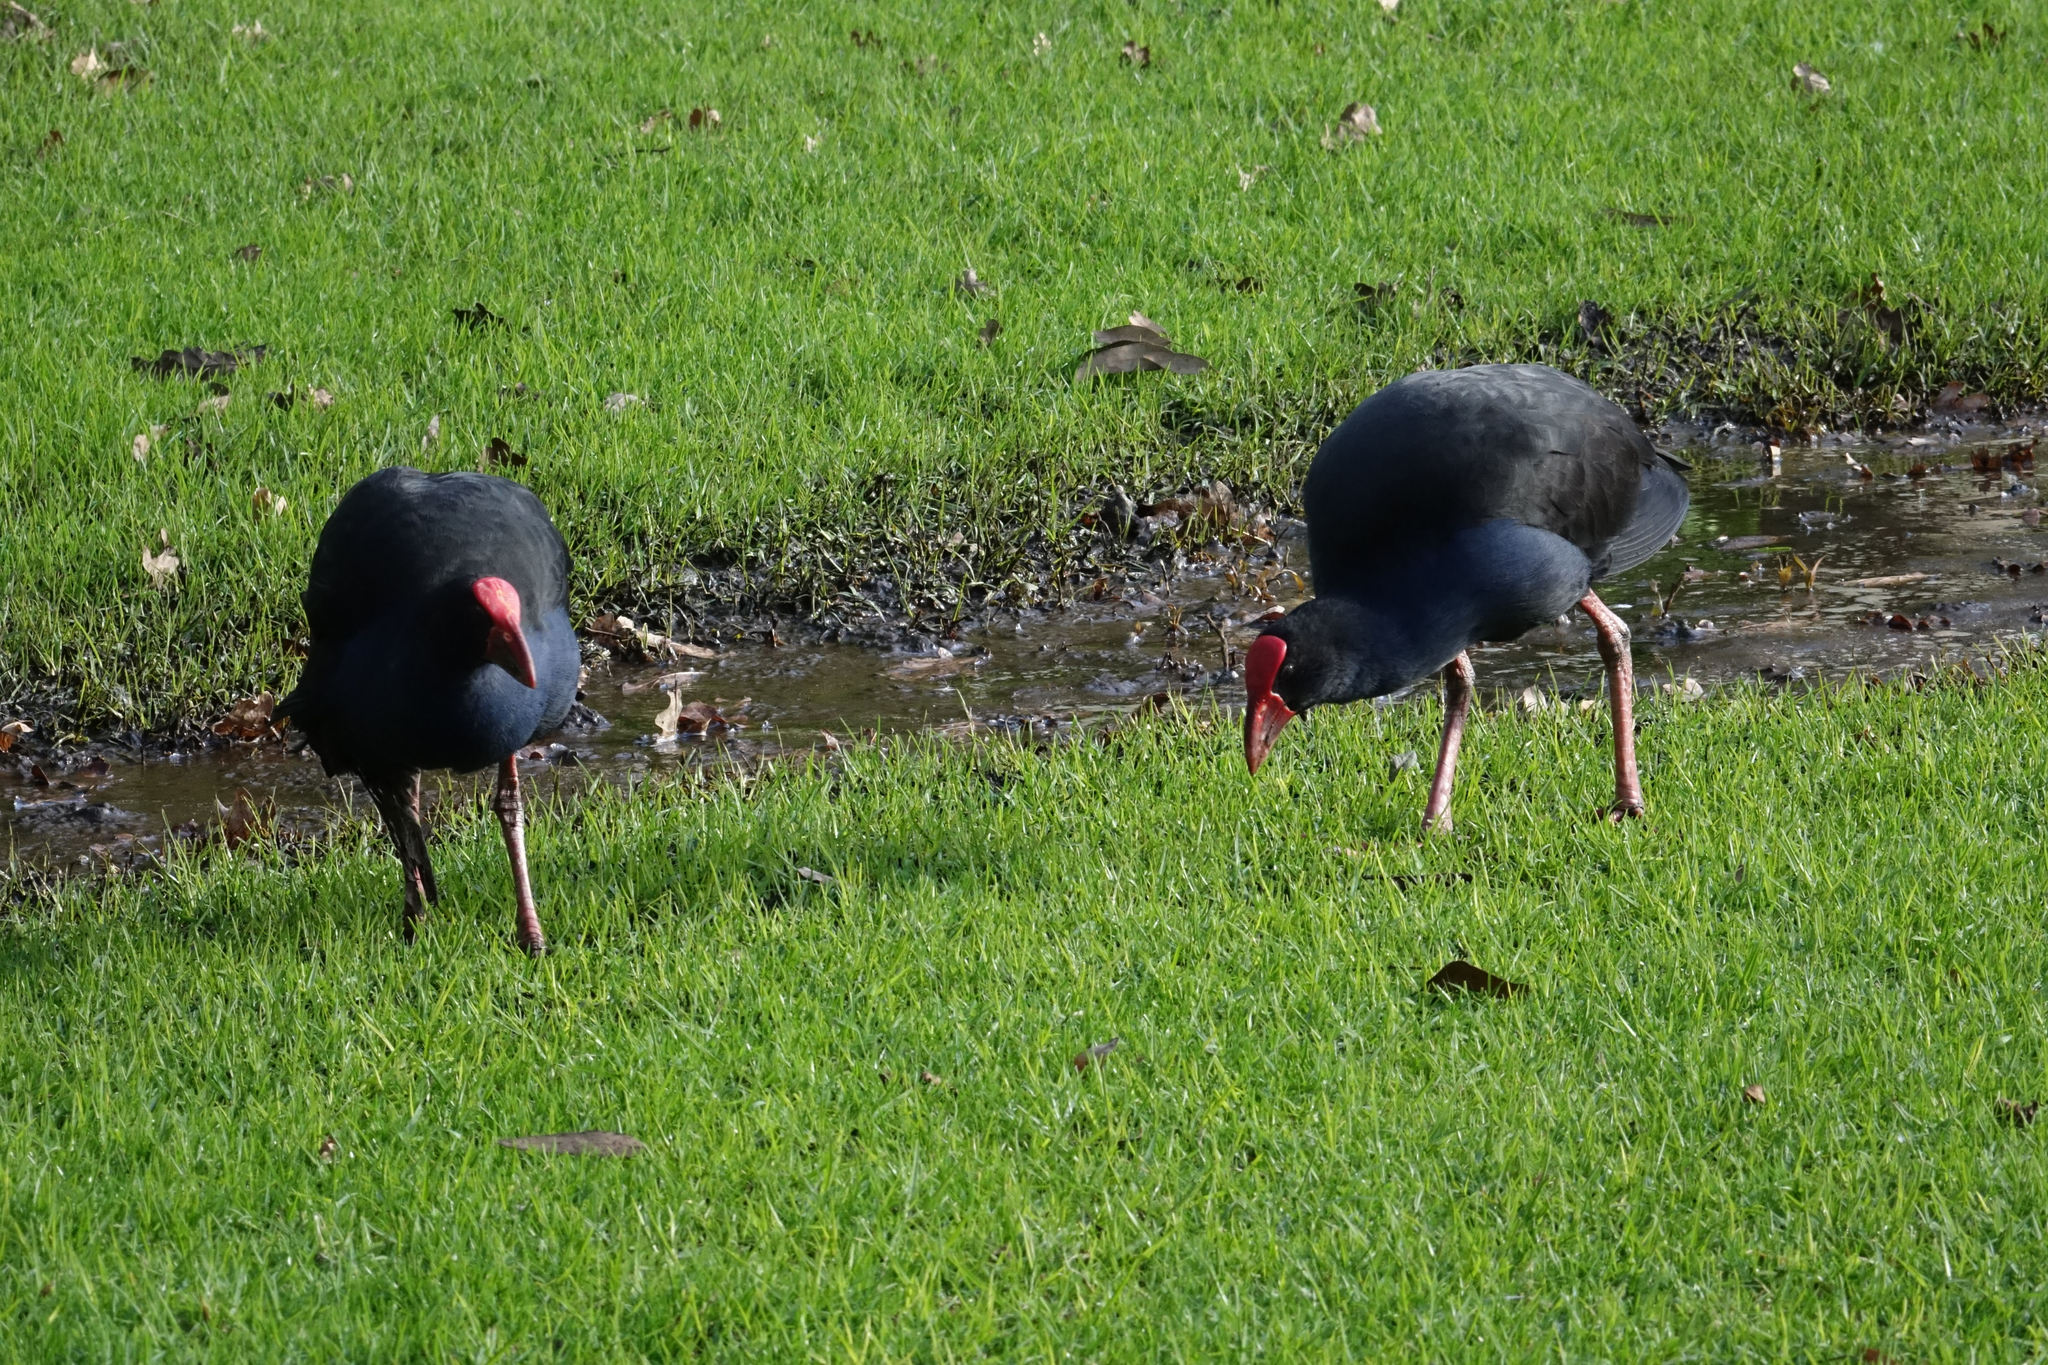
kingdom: Animalia
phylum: Chordata
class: Aves
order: Gruiformes
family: Rallidae
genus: Porphyrio
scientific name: Porphyrio melanotus
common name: Australasian swamphen
